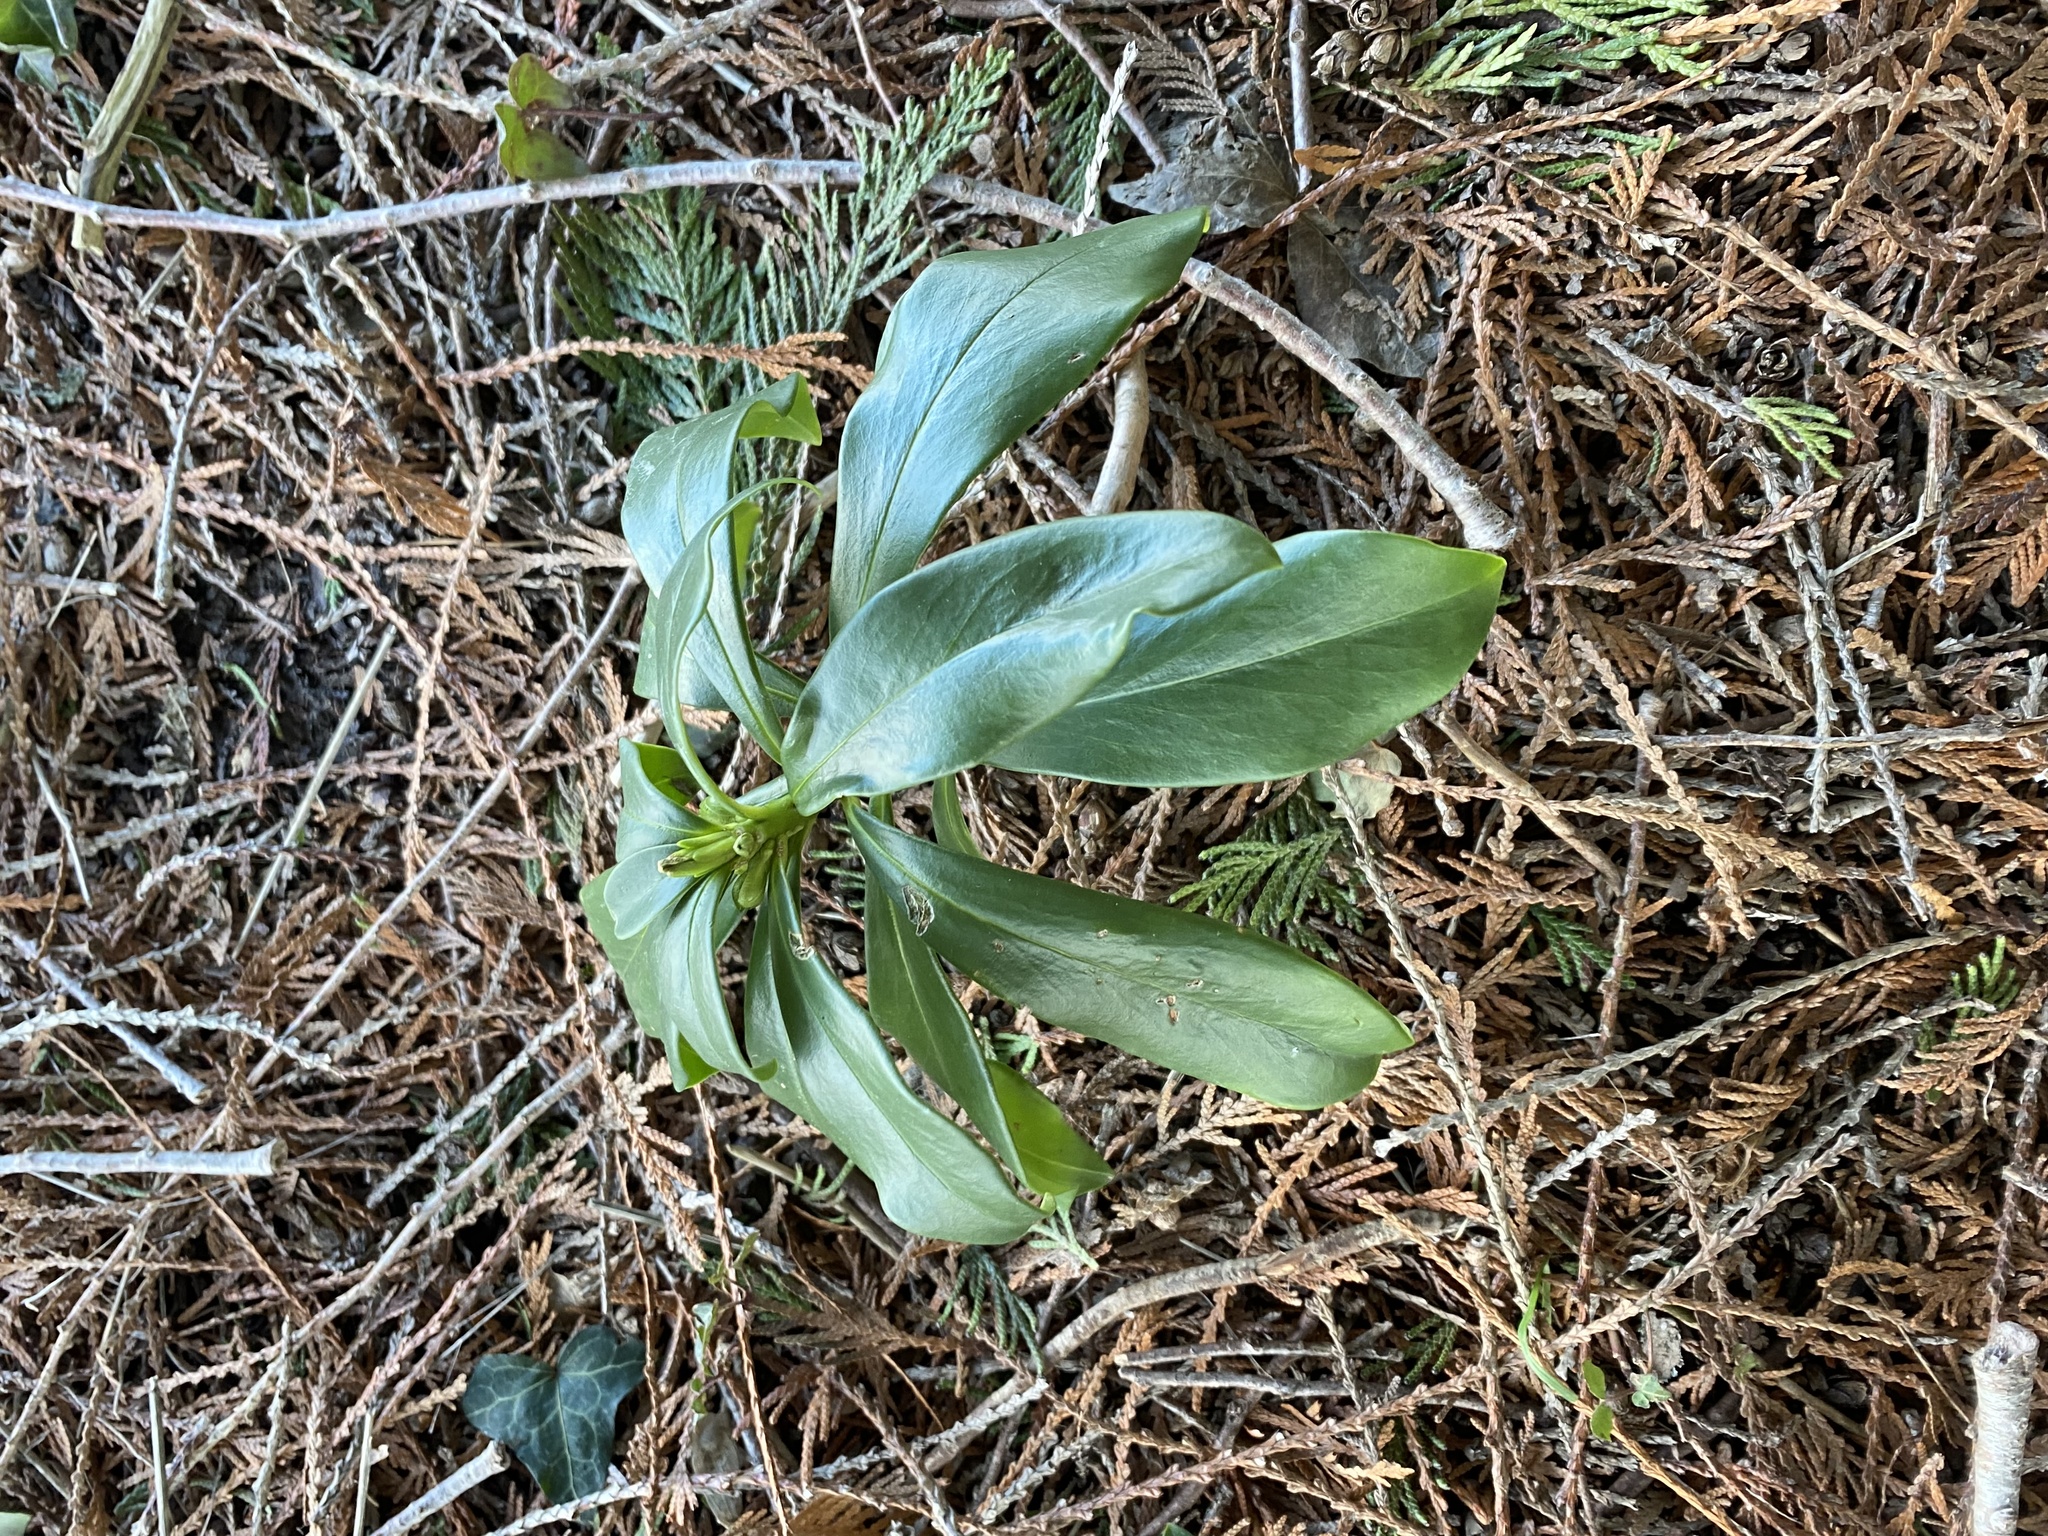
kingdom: Plantae
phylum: Tracheophyta
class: Magnoliopsida
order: Malvales
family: Thymelaeaceae
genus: Daphne
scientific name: Daphne laureola
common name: Spurge-laurel
